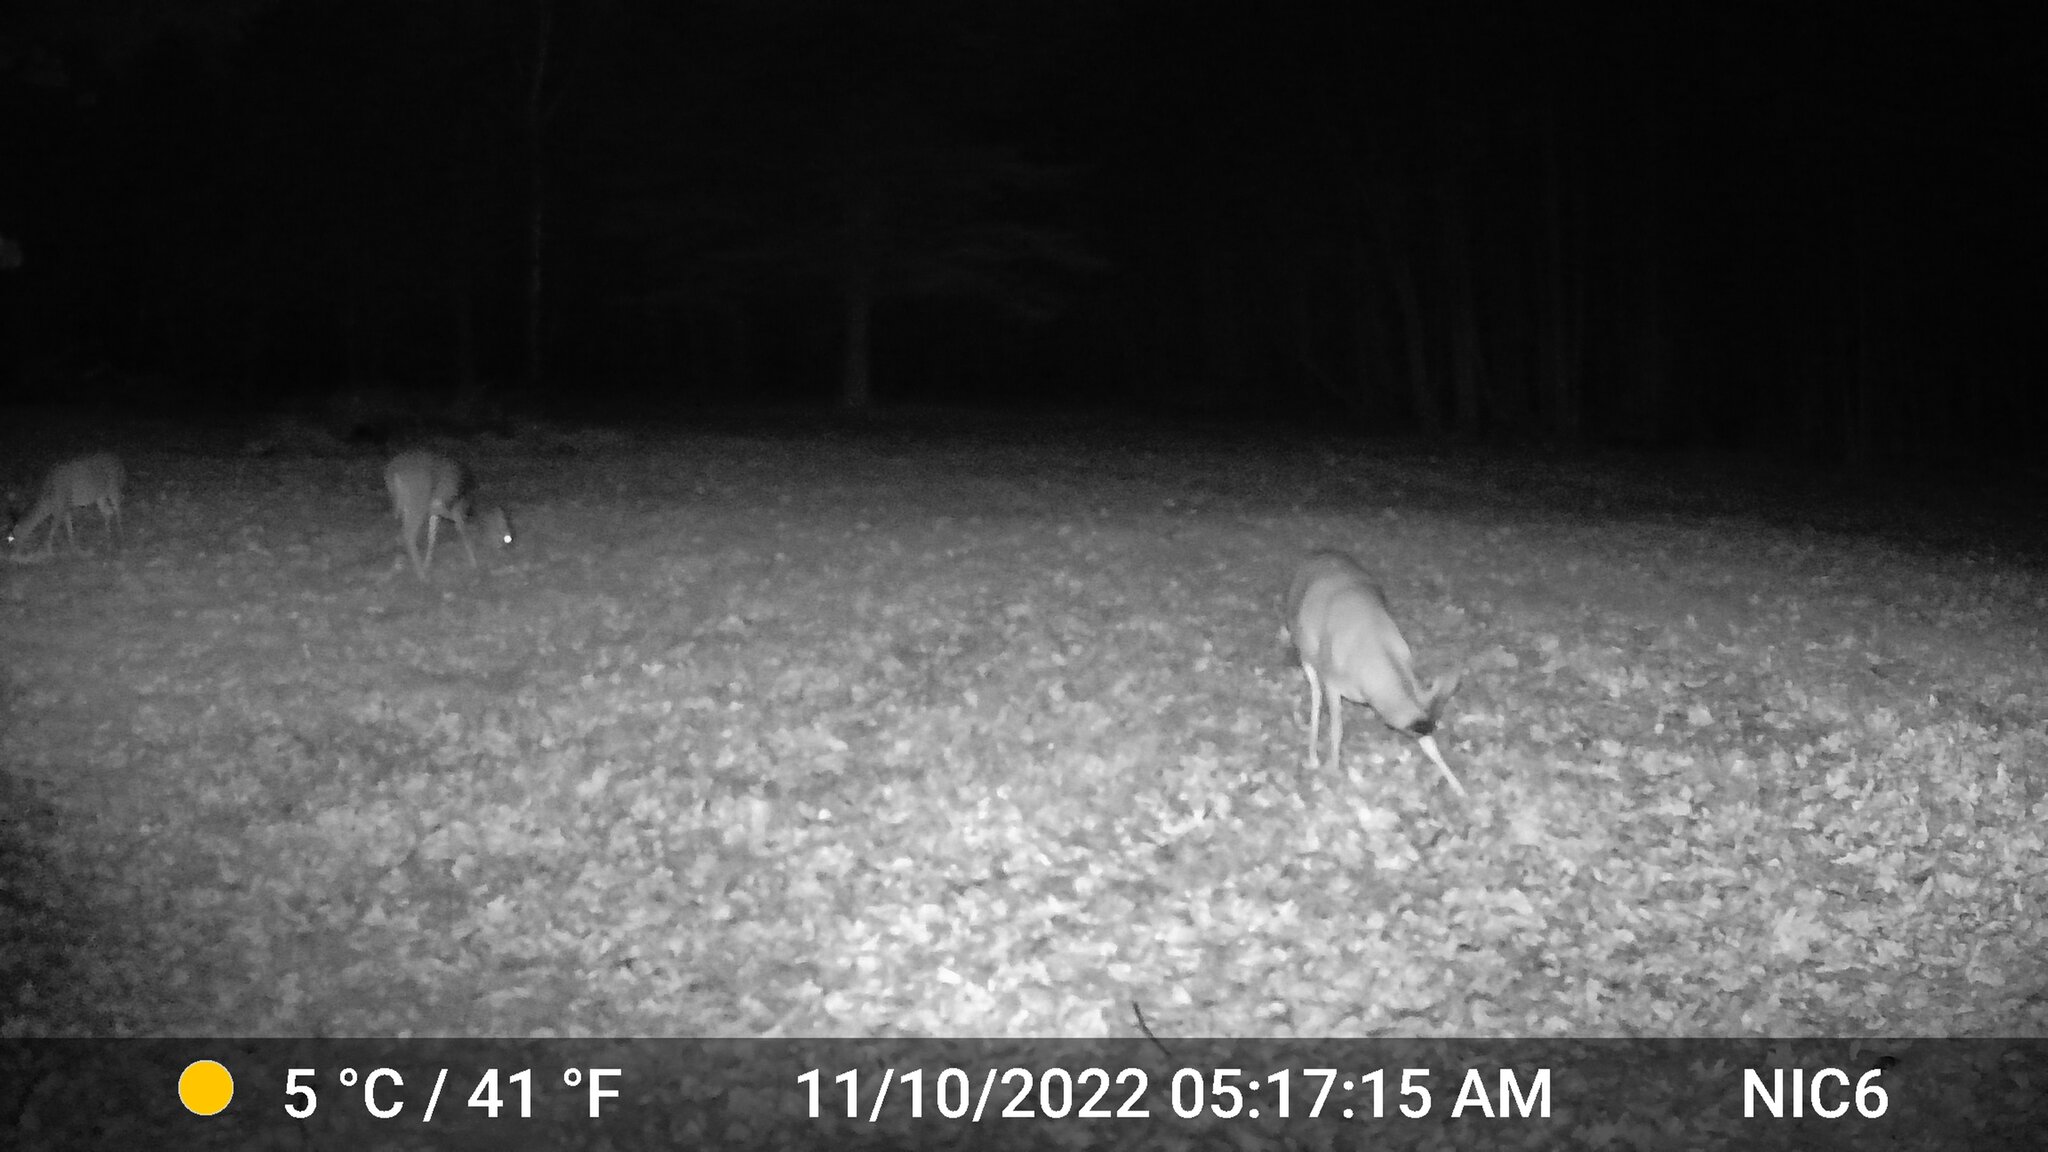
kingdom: Animalia
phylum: Chordata
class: Mammalia
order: Artiodactyla
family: Cervidae
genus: Odocoileus
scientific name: Odocoileus virginianus
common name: White-tailed deer
